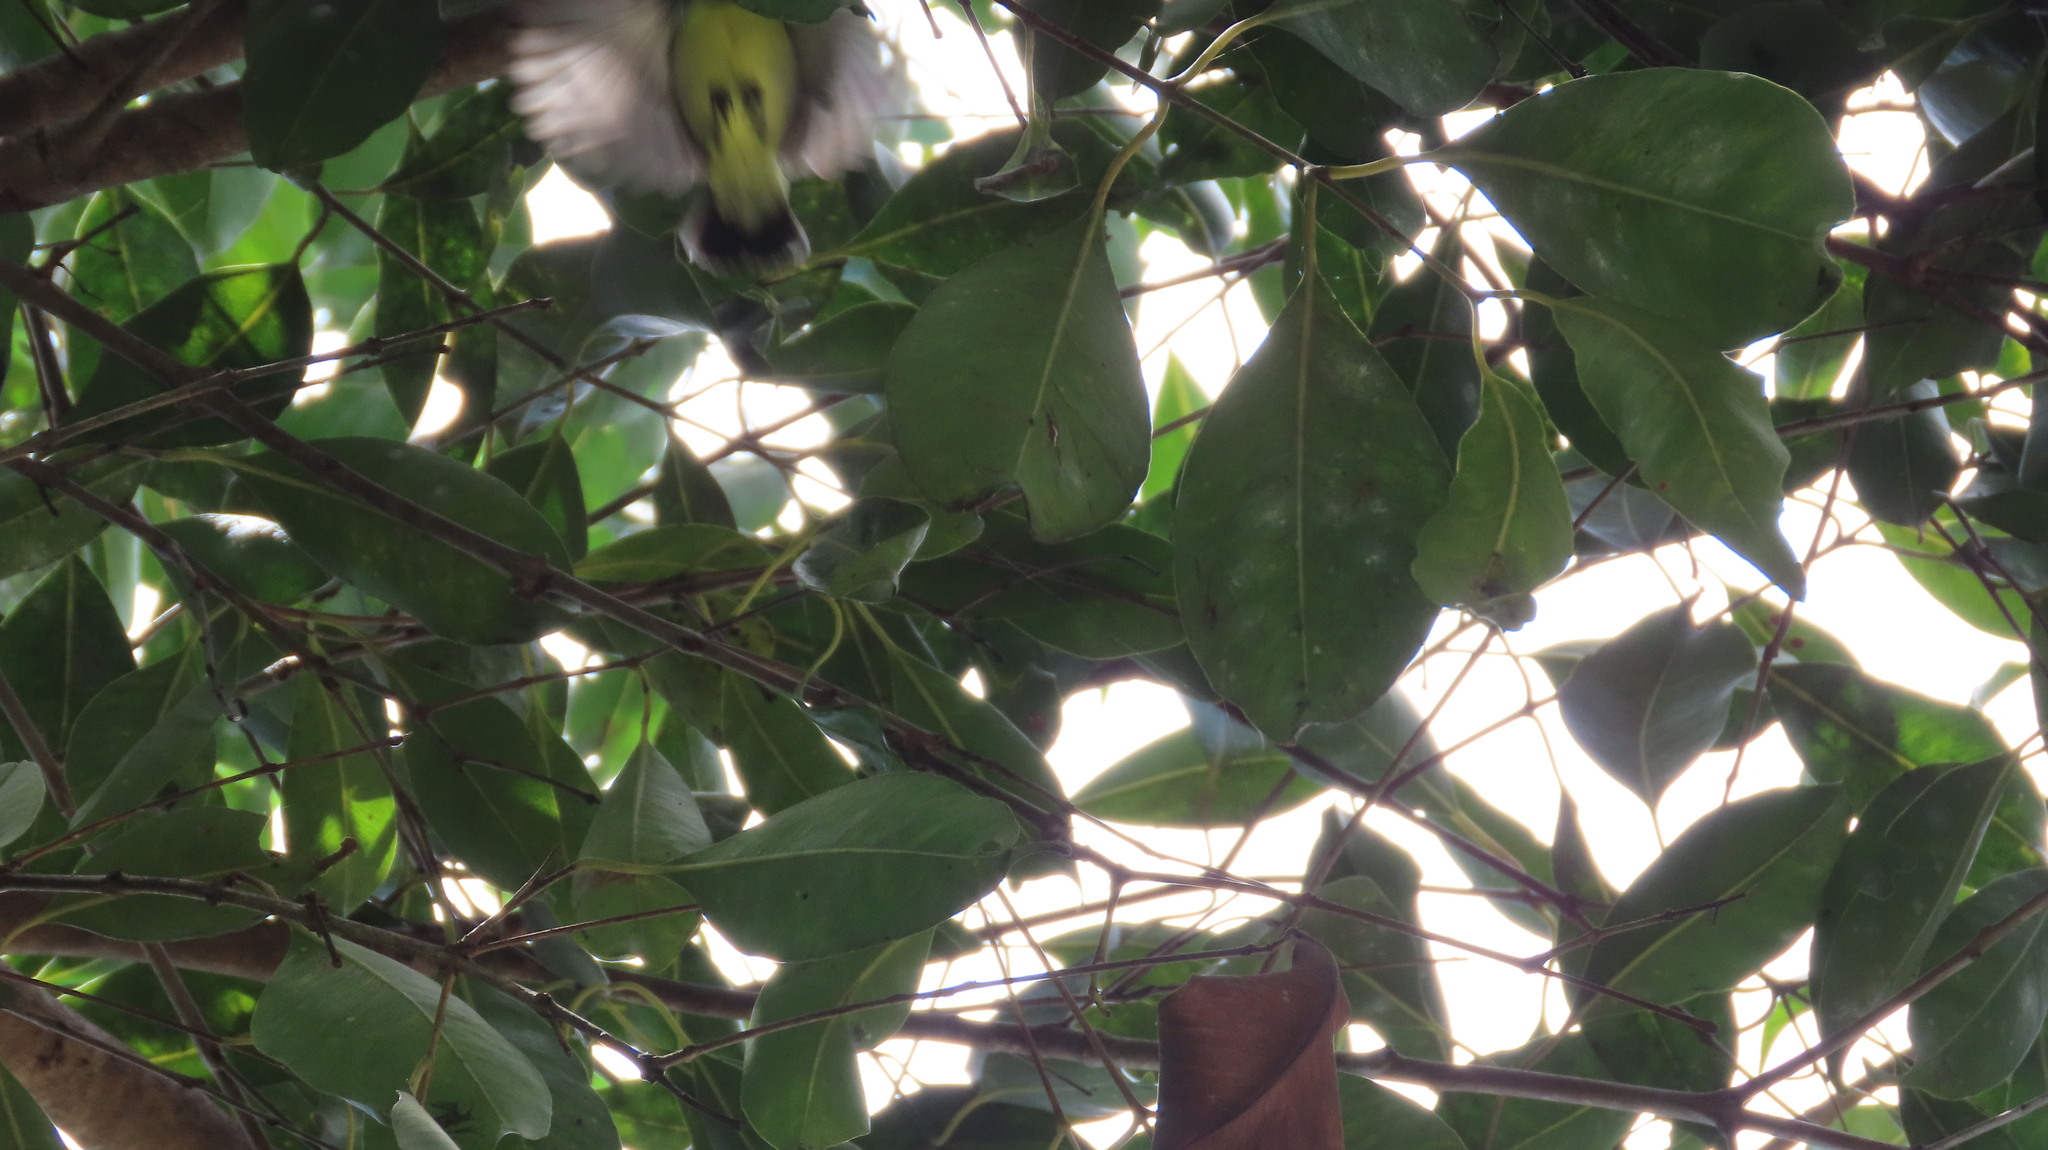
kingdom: Animalia
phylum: Chordata
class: Aves
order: Passeriformes
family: Nectariniidae
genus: Leptocoma
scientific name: Leptocoma zeylonica
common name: Purple-rumped sunbird
